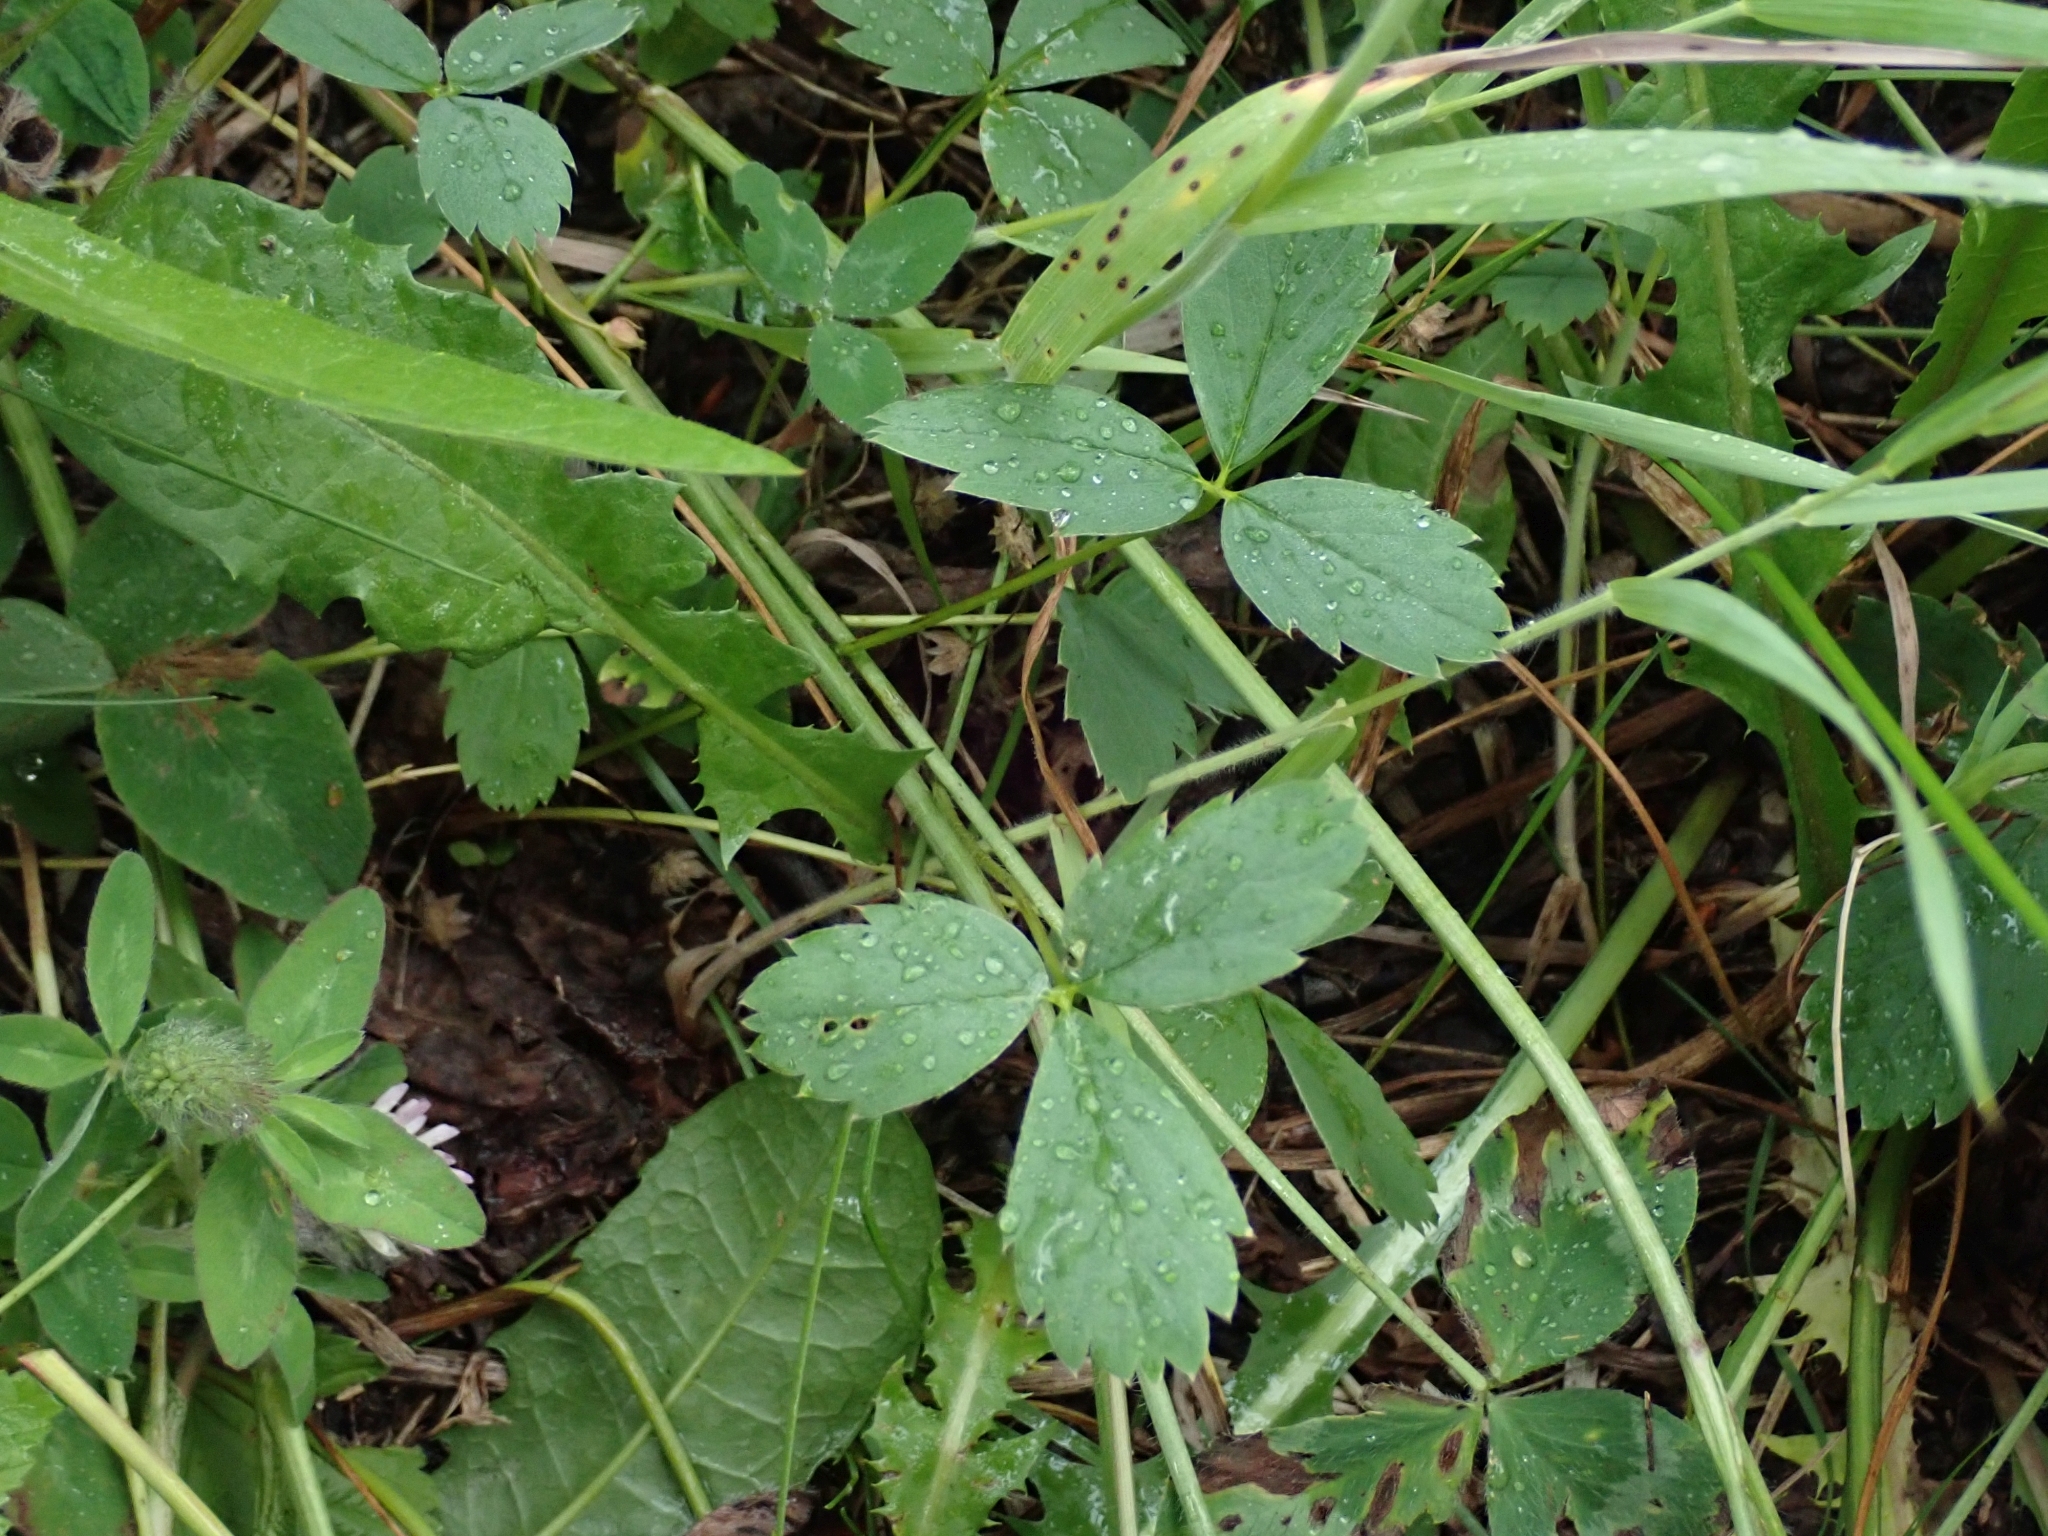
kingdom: Plantae
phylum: Tracheophyta
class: Magnoliopsida
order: Rosales
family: Rosaceae
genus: Fragaria
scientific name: Fragaria virginiana
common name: Thickleaved wild strawberry
